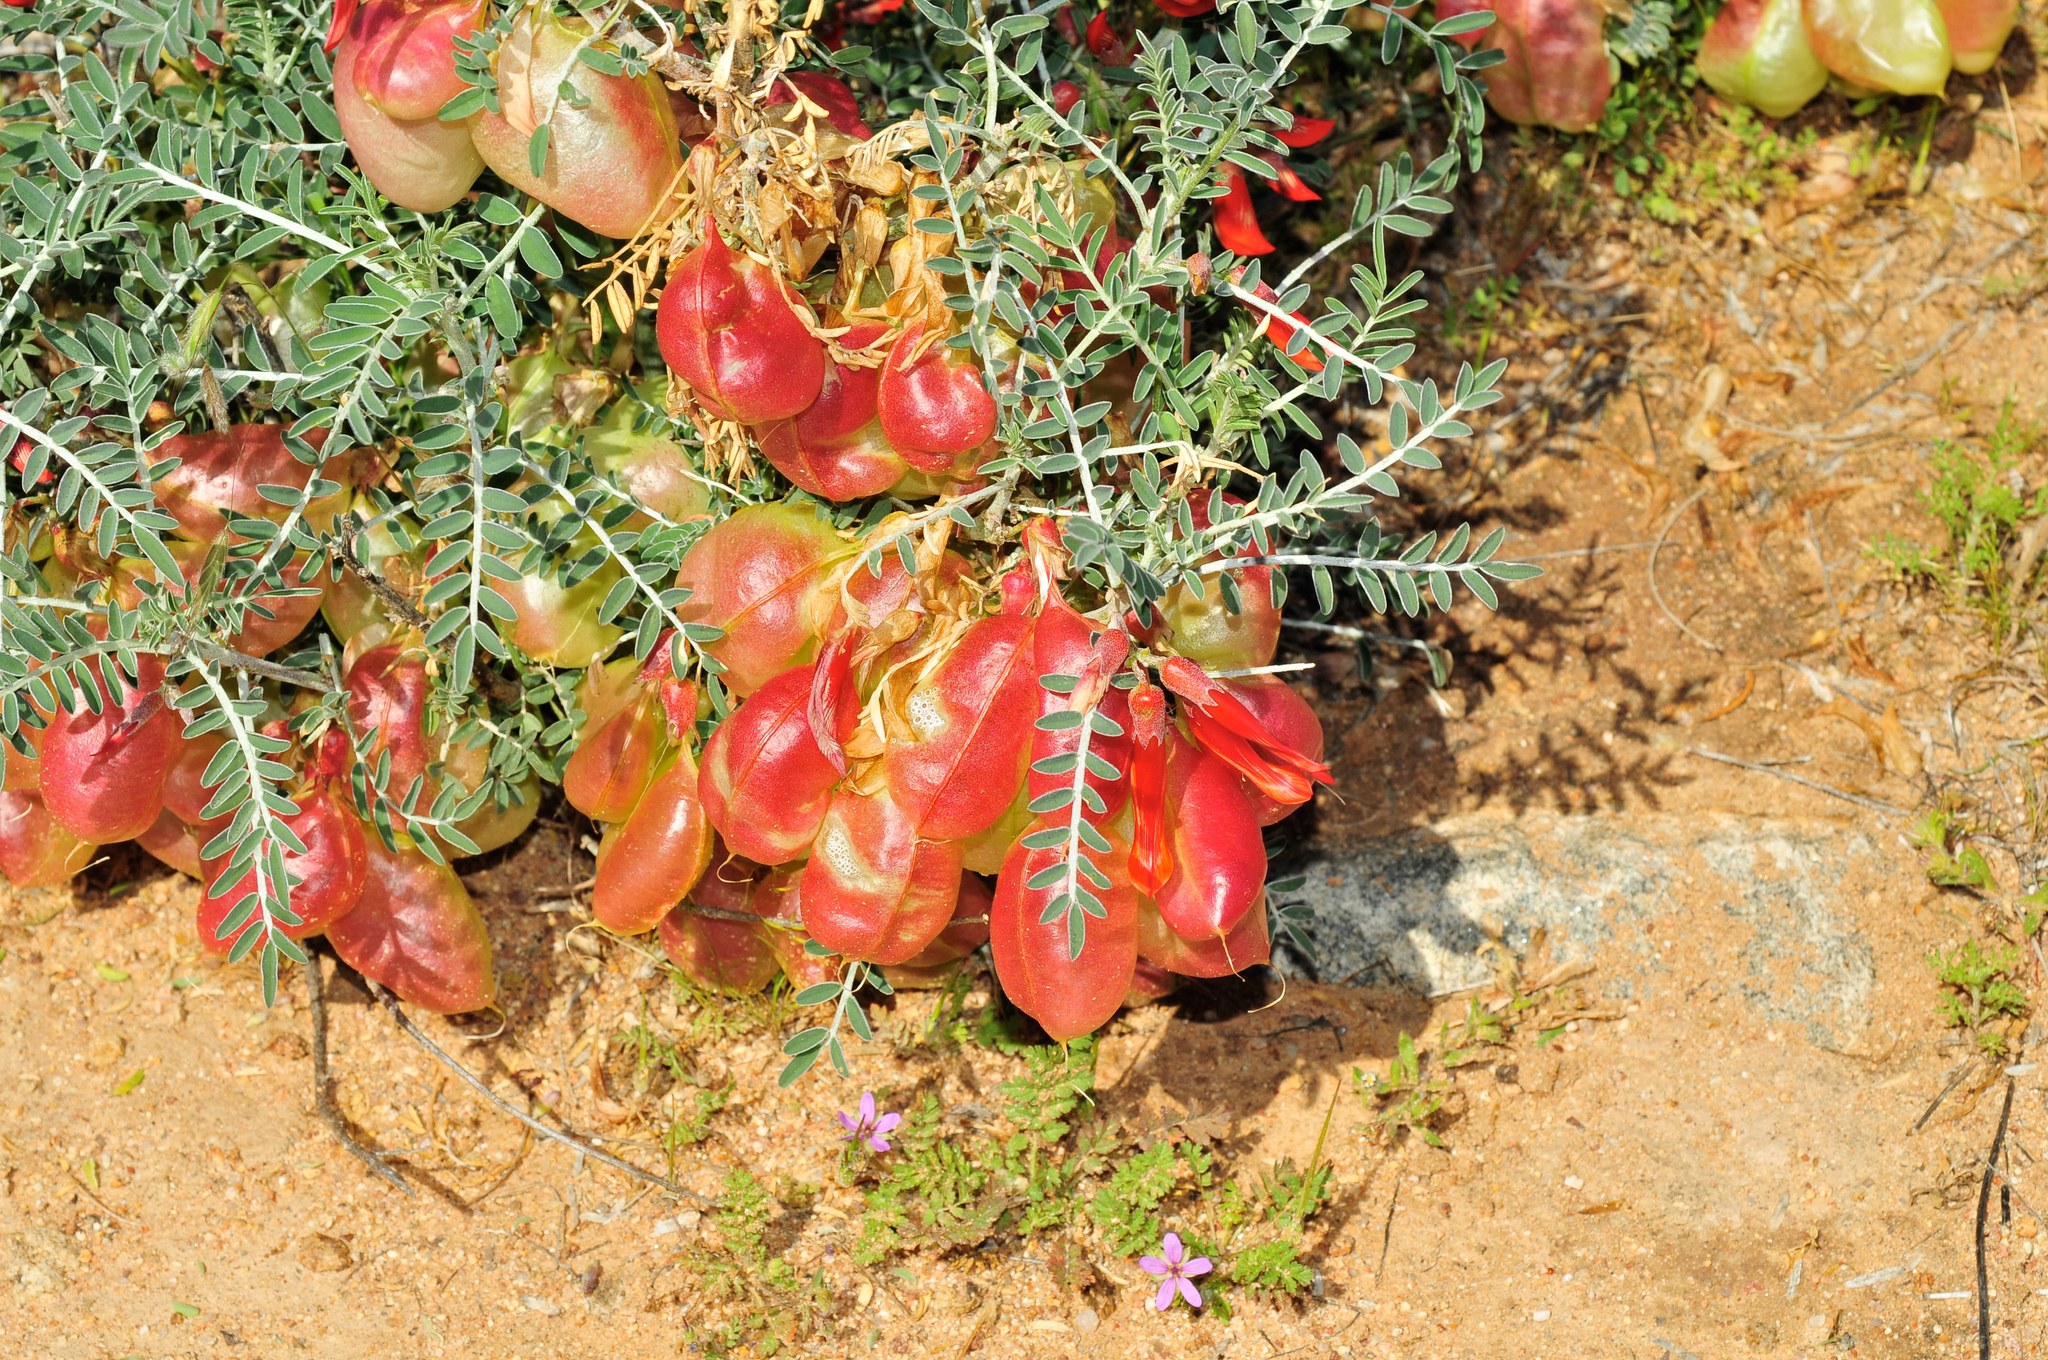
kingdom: Plantae
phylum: Tracheophyta
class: Magnoliopsida
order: Fabales
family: Fabaceae
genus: Lessertia
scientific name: Lessertia frutescens
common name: Balloon-pea
